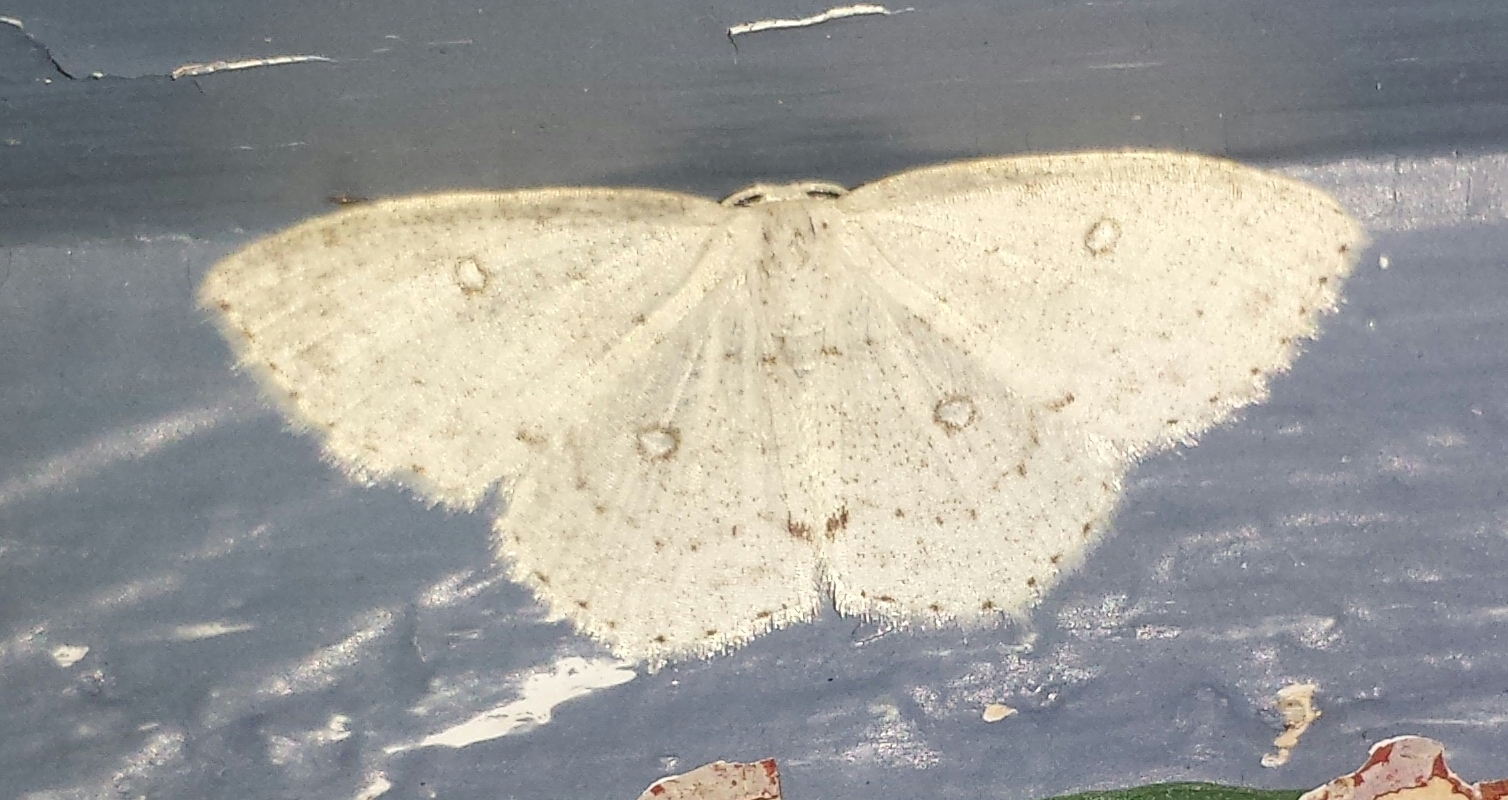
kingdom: Animalia
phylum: Arthropoda
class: Insecta
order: Lepidoptera
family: Geometridae
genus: Cyclophora
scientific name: Cyclophora pendulinaria
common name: Sweet fern geometer
